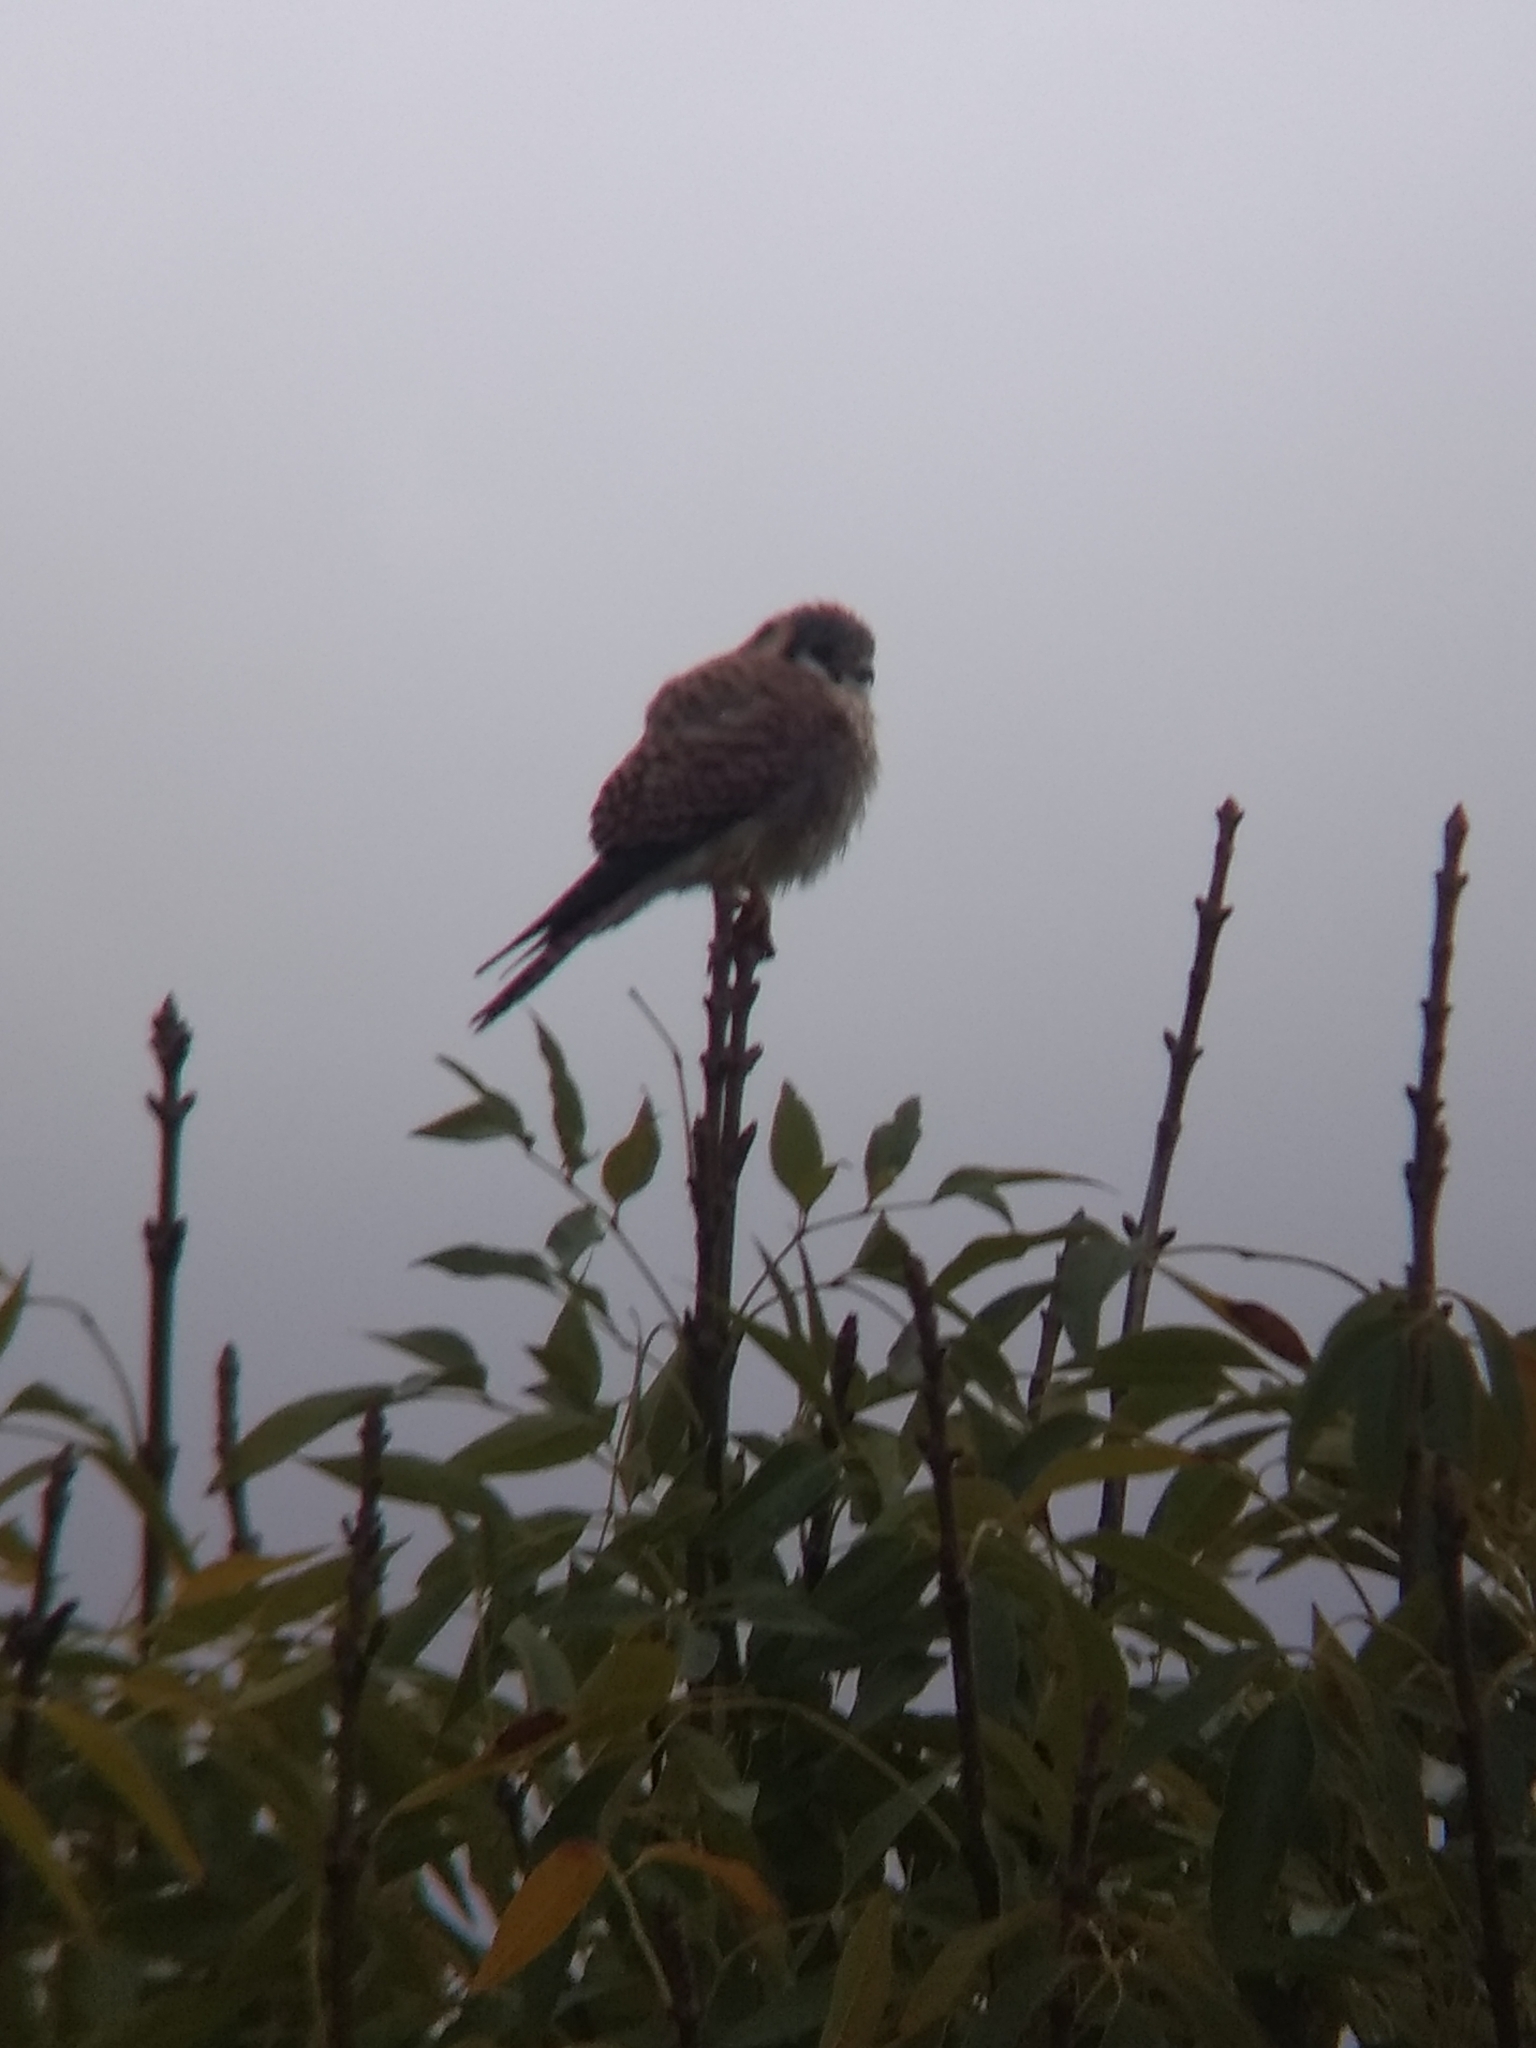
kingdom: Animalia
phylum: Chordata
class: Aves
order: Falconiformes
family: Falconidae
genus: Falco
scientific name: Falco sparverius
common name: American kestrel
